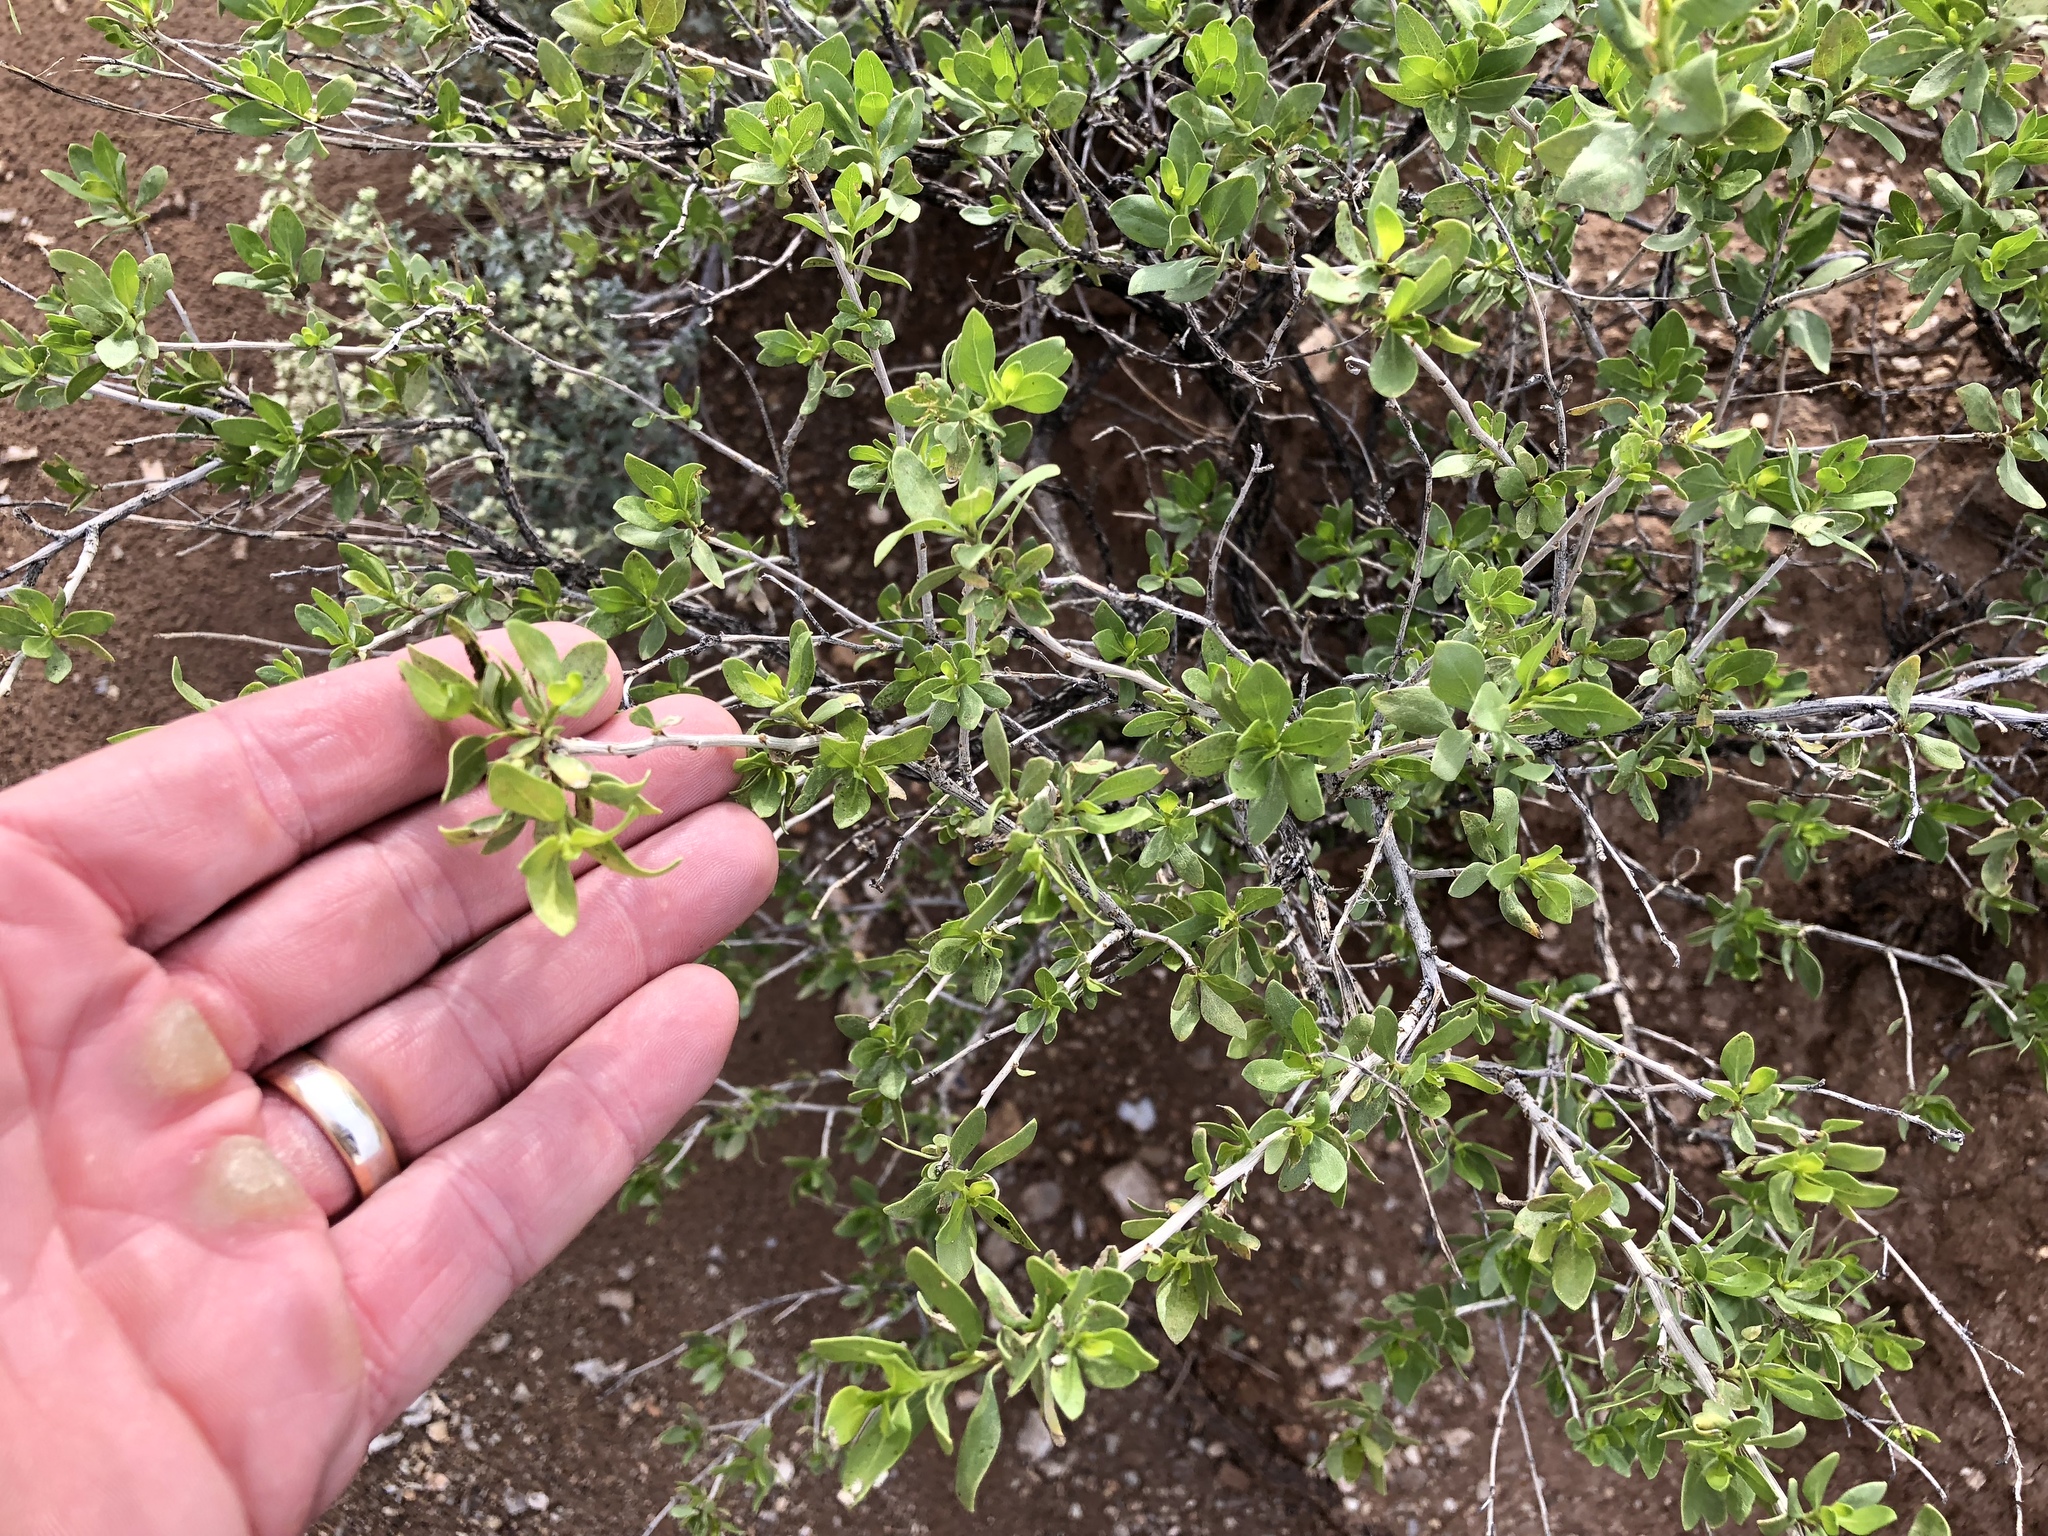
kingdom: Plantae
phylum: Tracheophyta
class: Magnoliopsida
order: Asterales
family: Asteraceae
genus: Flourensia
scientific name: Flourensia cernua
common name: Varnishbush
